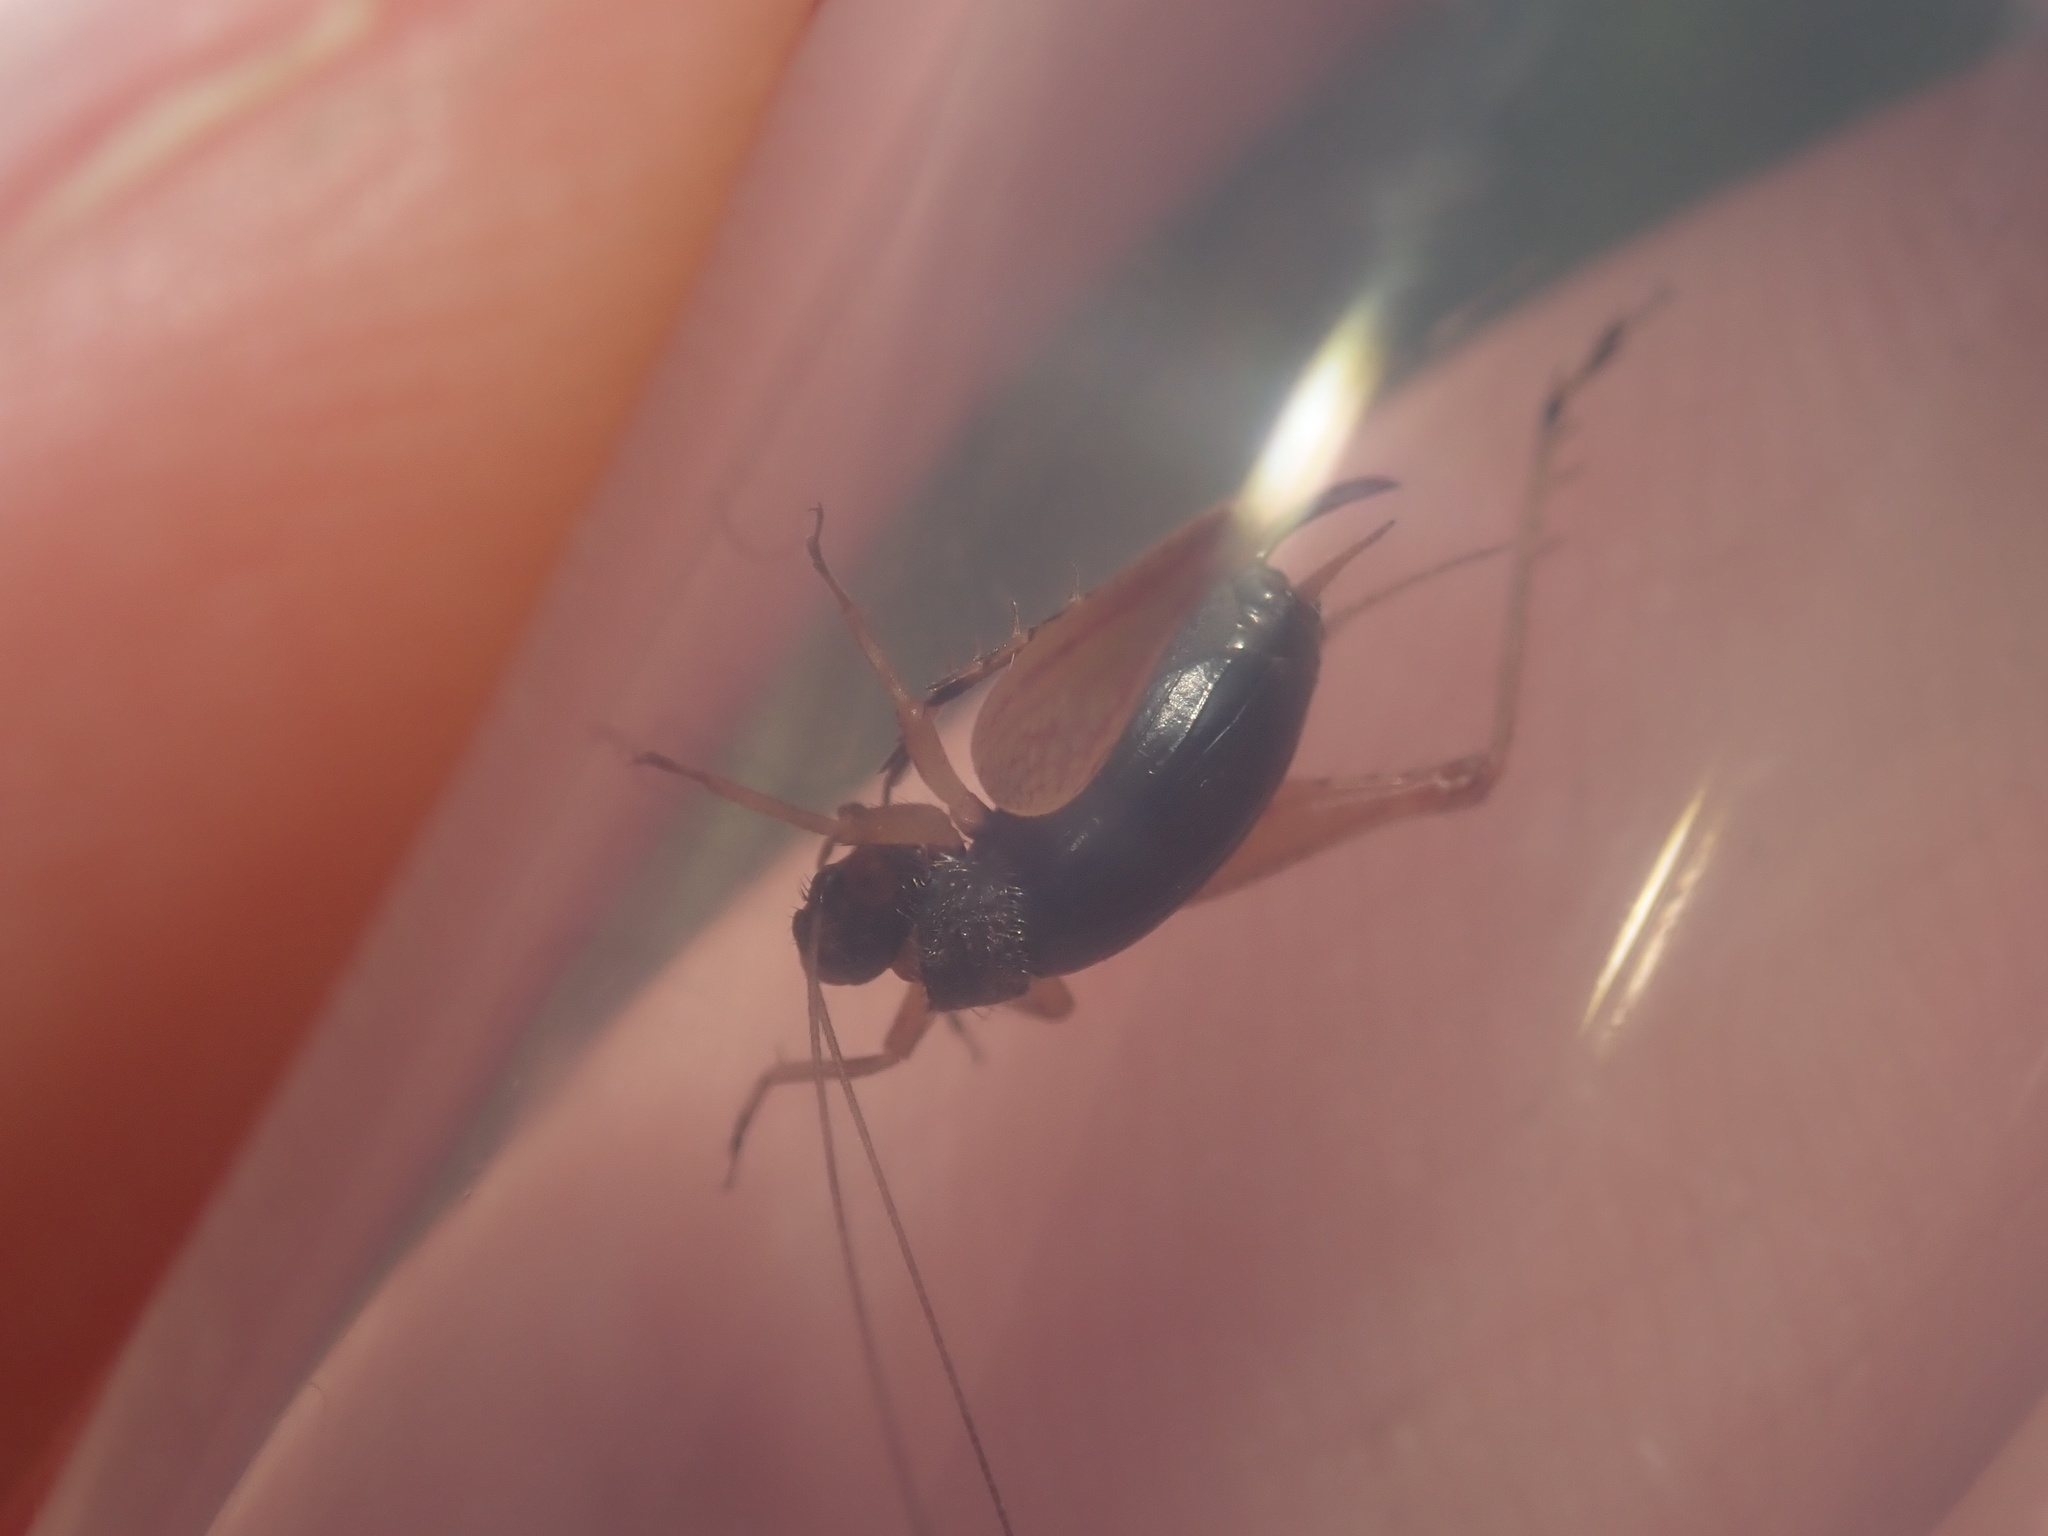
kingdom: Animalia
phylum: Arthropoda
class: Insecta
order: Orthoptera
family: Trigonidiidae
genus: Metioche
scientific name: Metioche maorica
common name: New zealand trig
